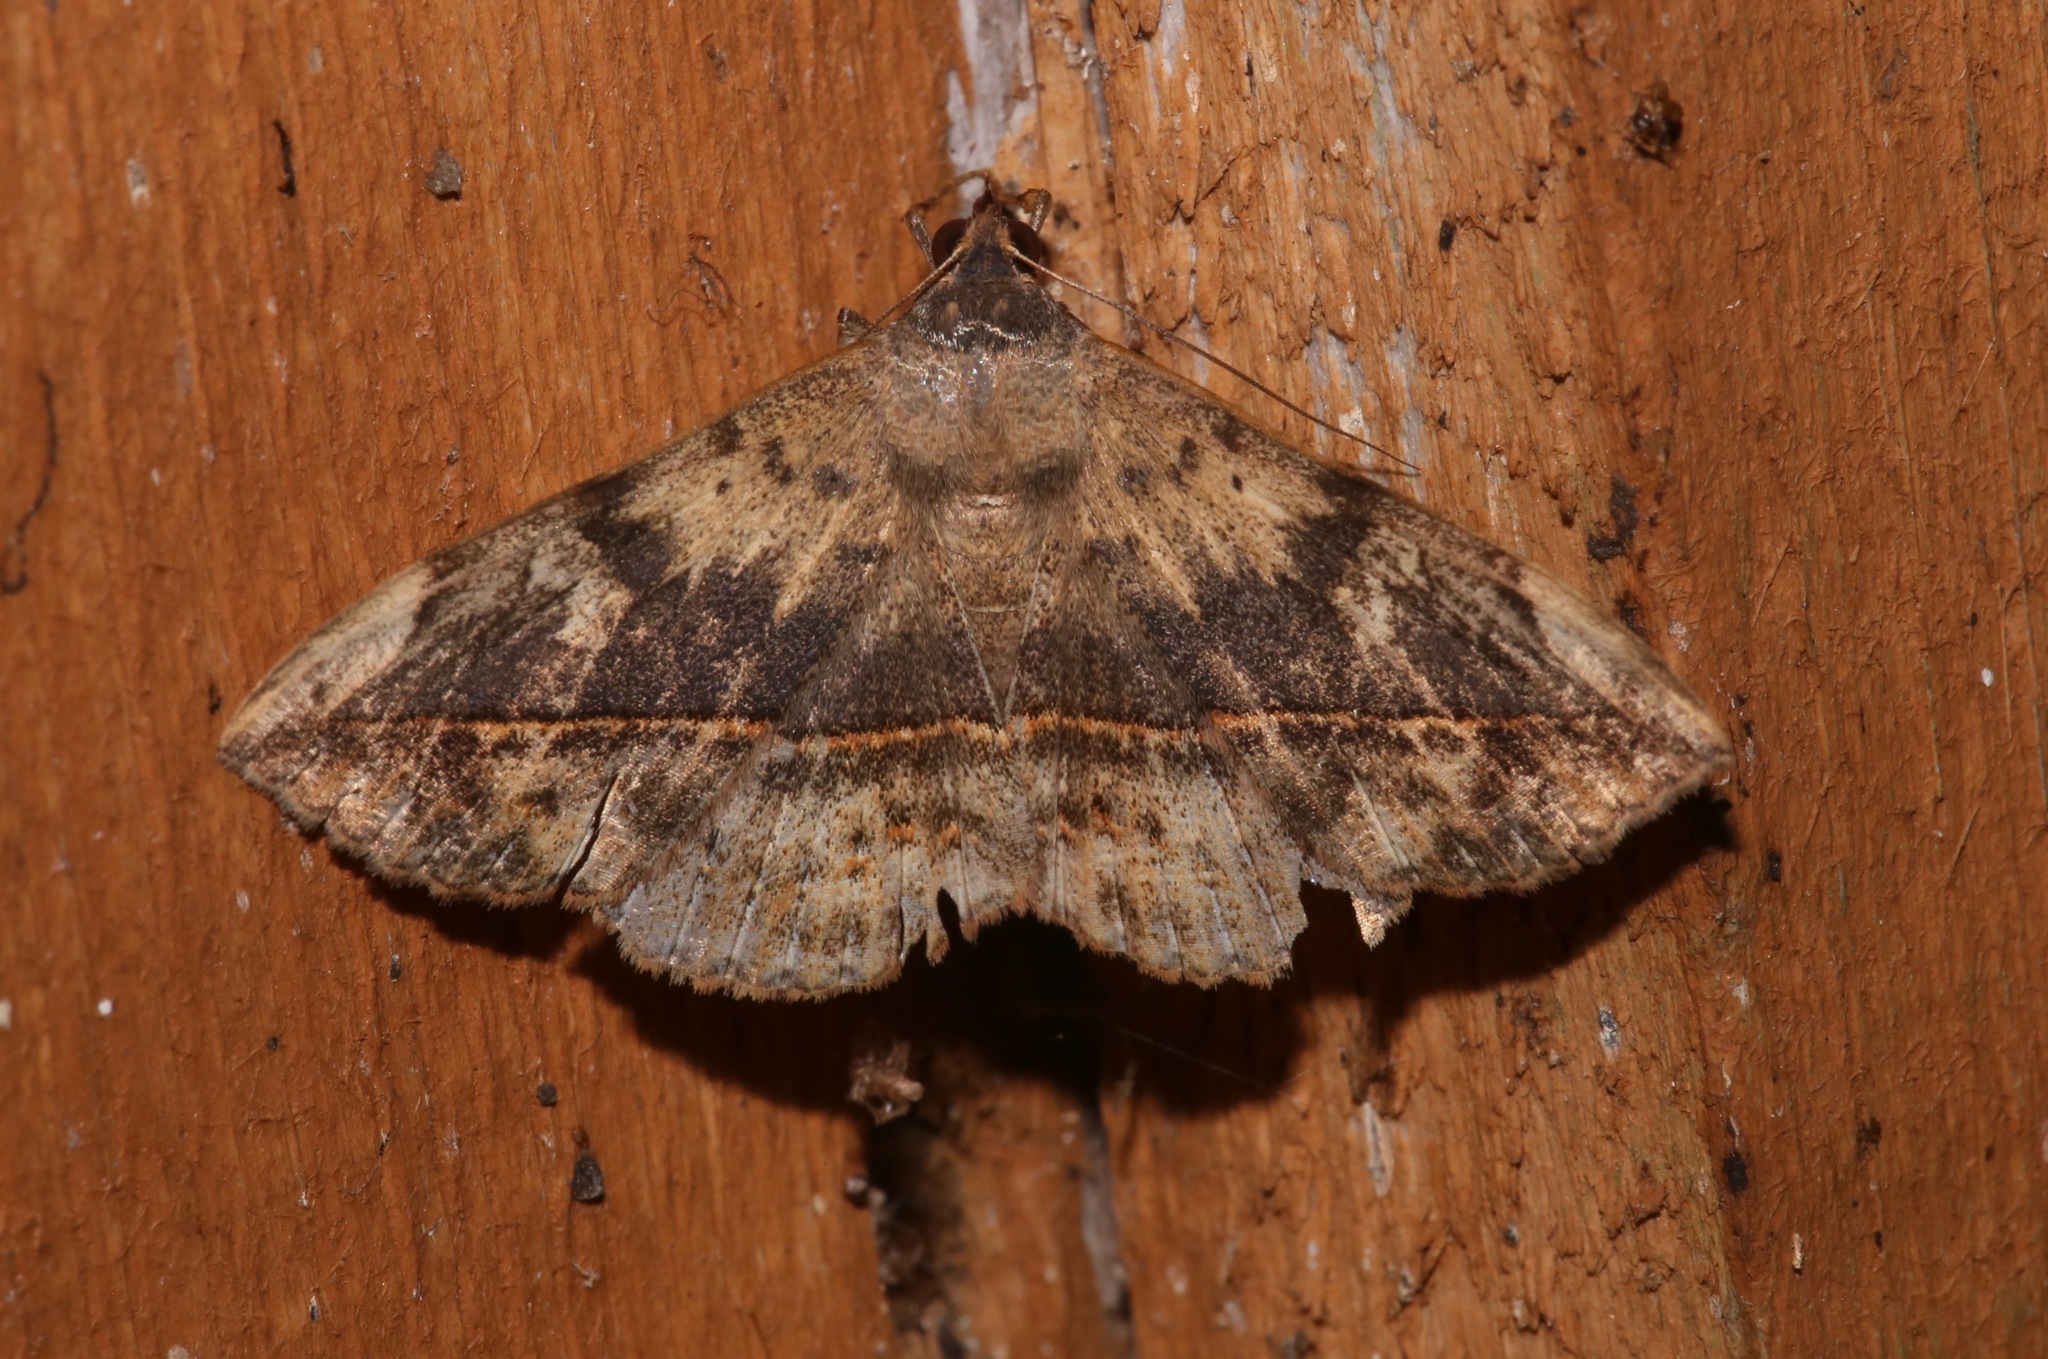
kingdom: Animalia
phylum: Arthropoda
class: Insecta
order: Lepidoptera
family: Erebidae
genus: Anticarsia
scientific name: Anticarsia gemmatalis
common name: Cutworm moth
